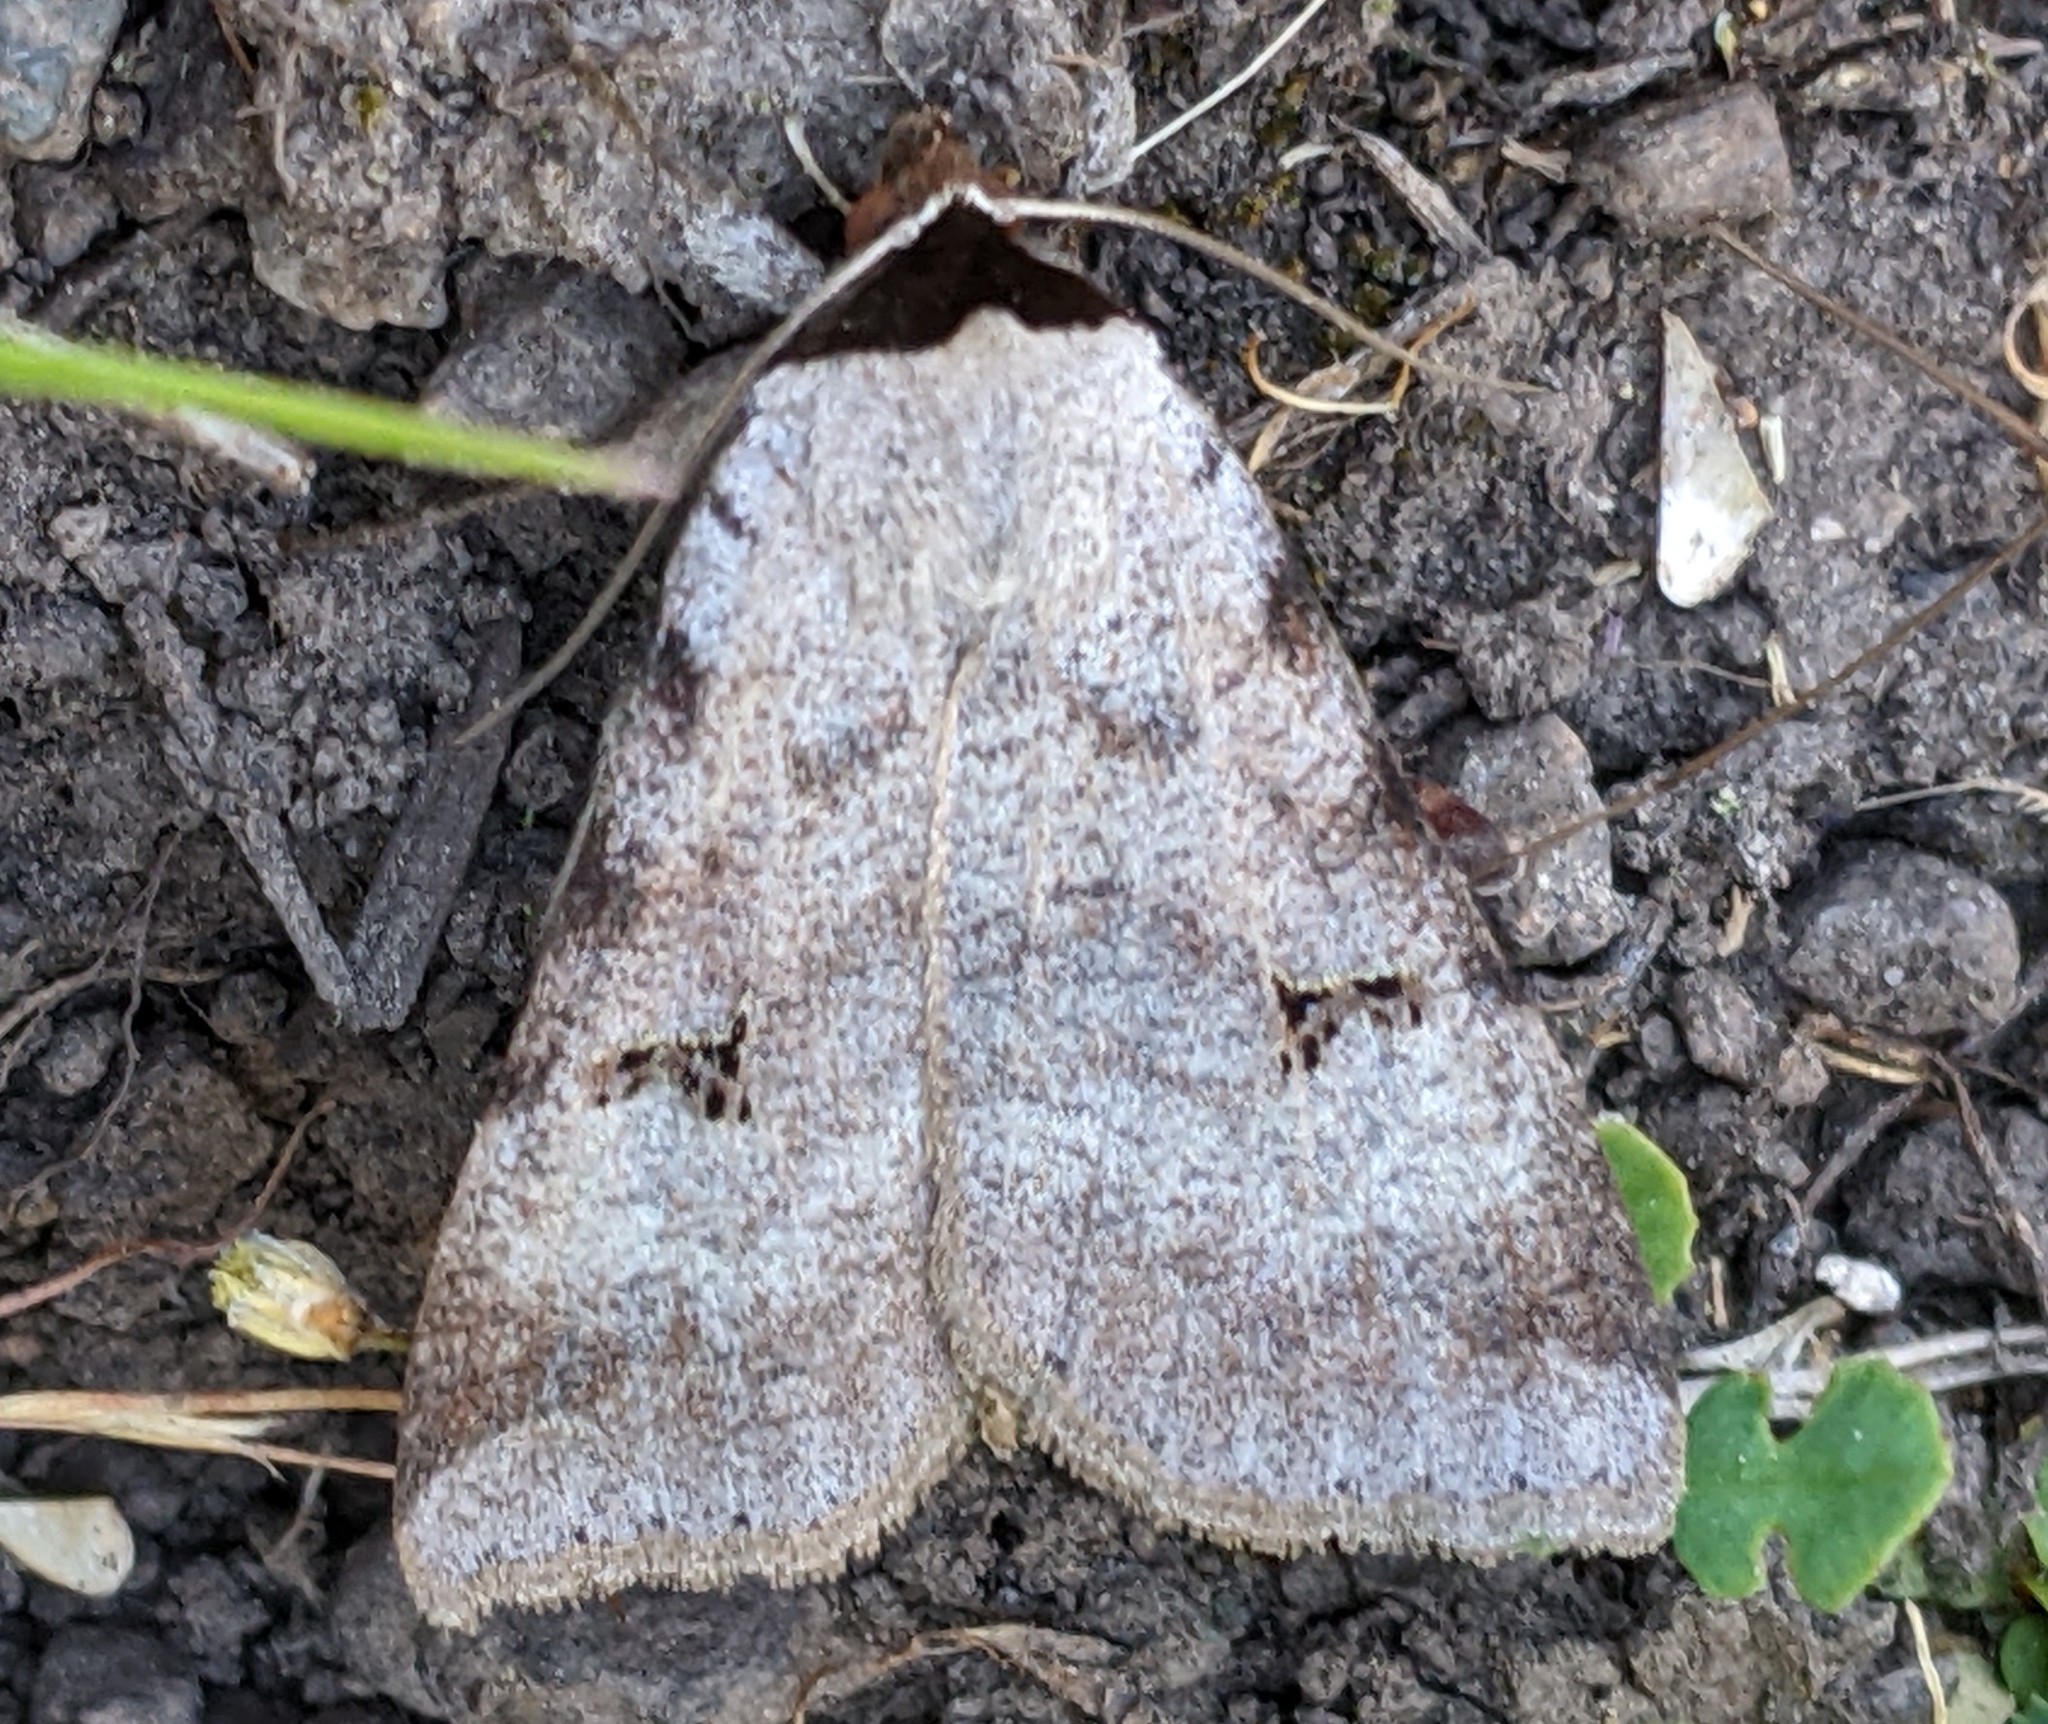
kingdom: Animalia
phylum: Arthropoda
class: Insecta
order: Lepidoptera
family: Erebidae
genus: Lygephila
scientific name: Lygephila victoria
